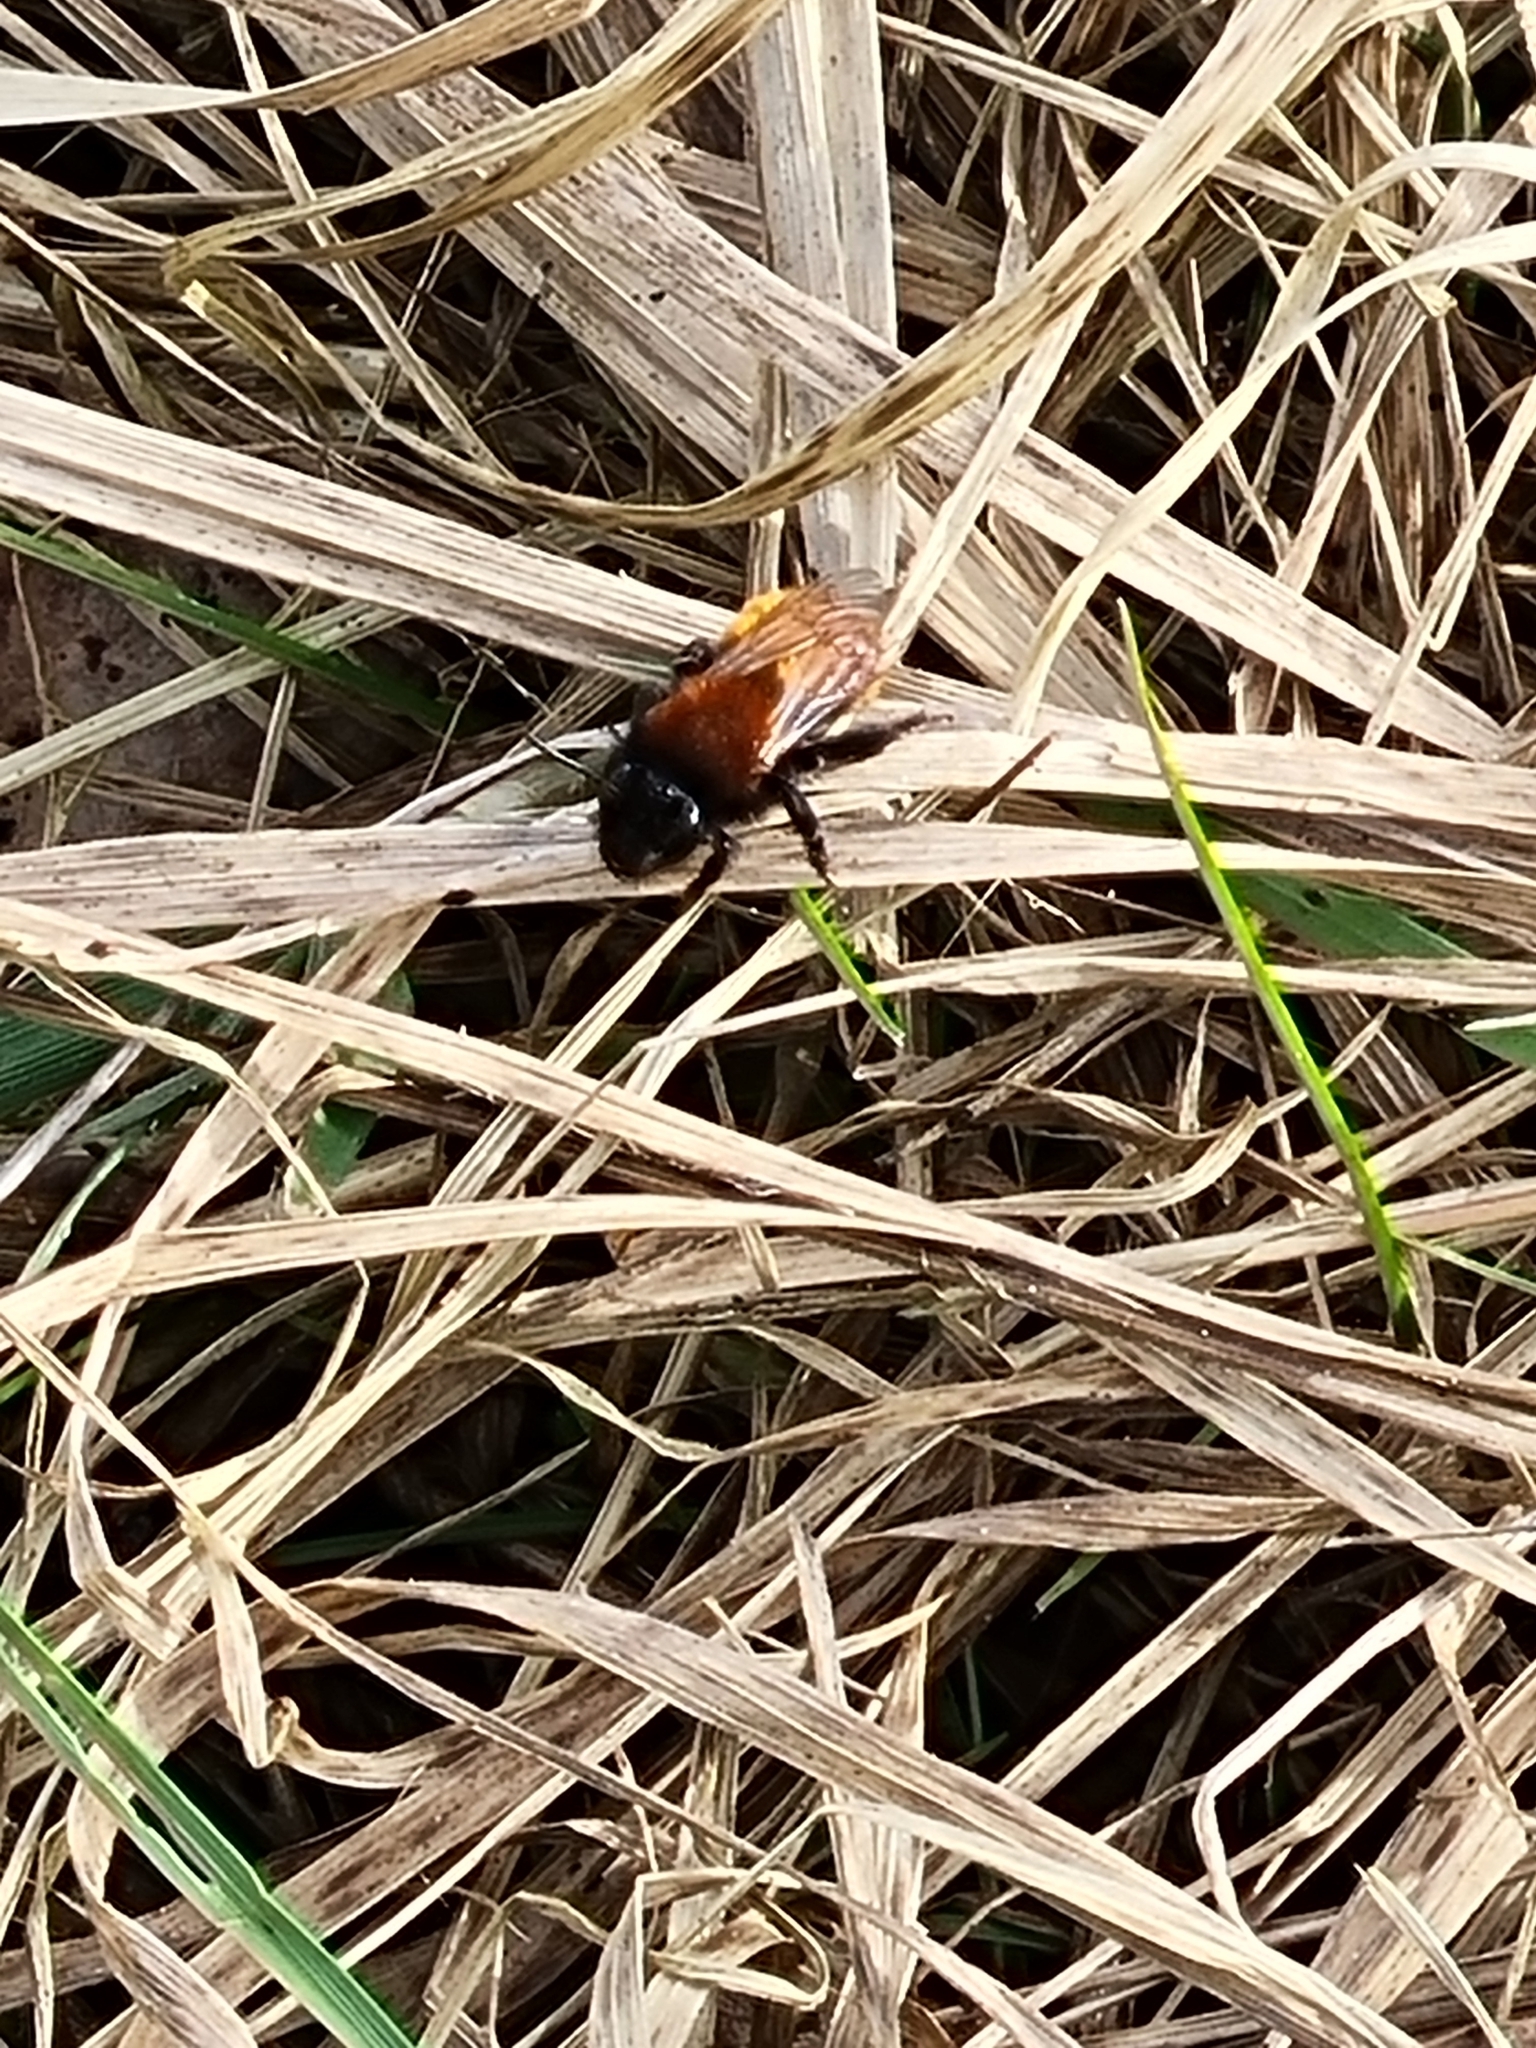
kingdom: Animalia
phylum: Arthropoda
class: Insecta
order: Hymenoptera
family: Andrenidae
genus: Andrena
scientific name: Andrena fulva
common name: Tawny mining bee
